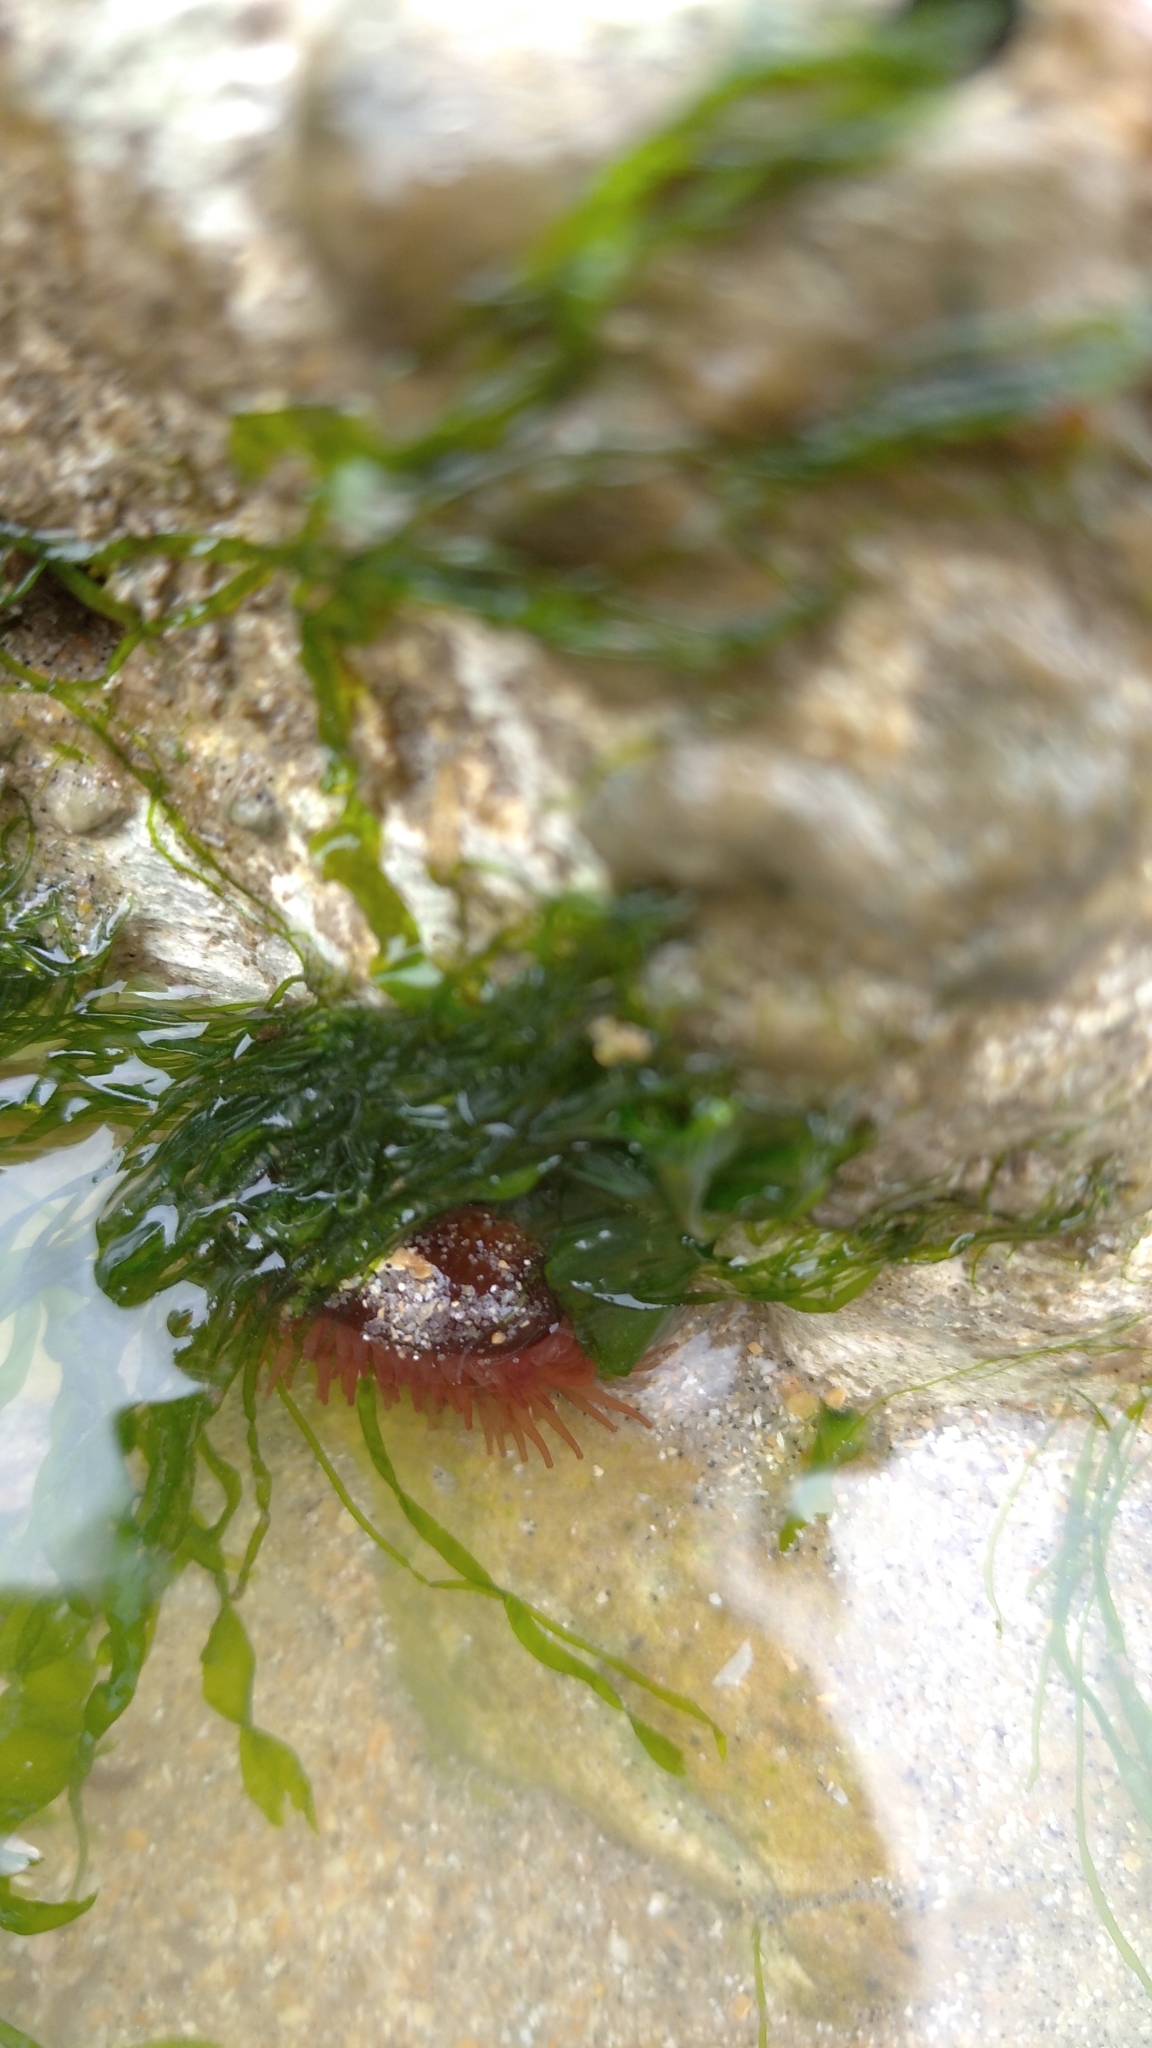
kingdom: Animalia
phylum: Cnidaria
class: Anthozoa
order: Actiniaria
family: Actiniidae
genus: Actinia
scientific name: Actinia equina
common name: Beadlet anemone
